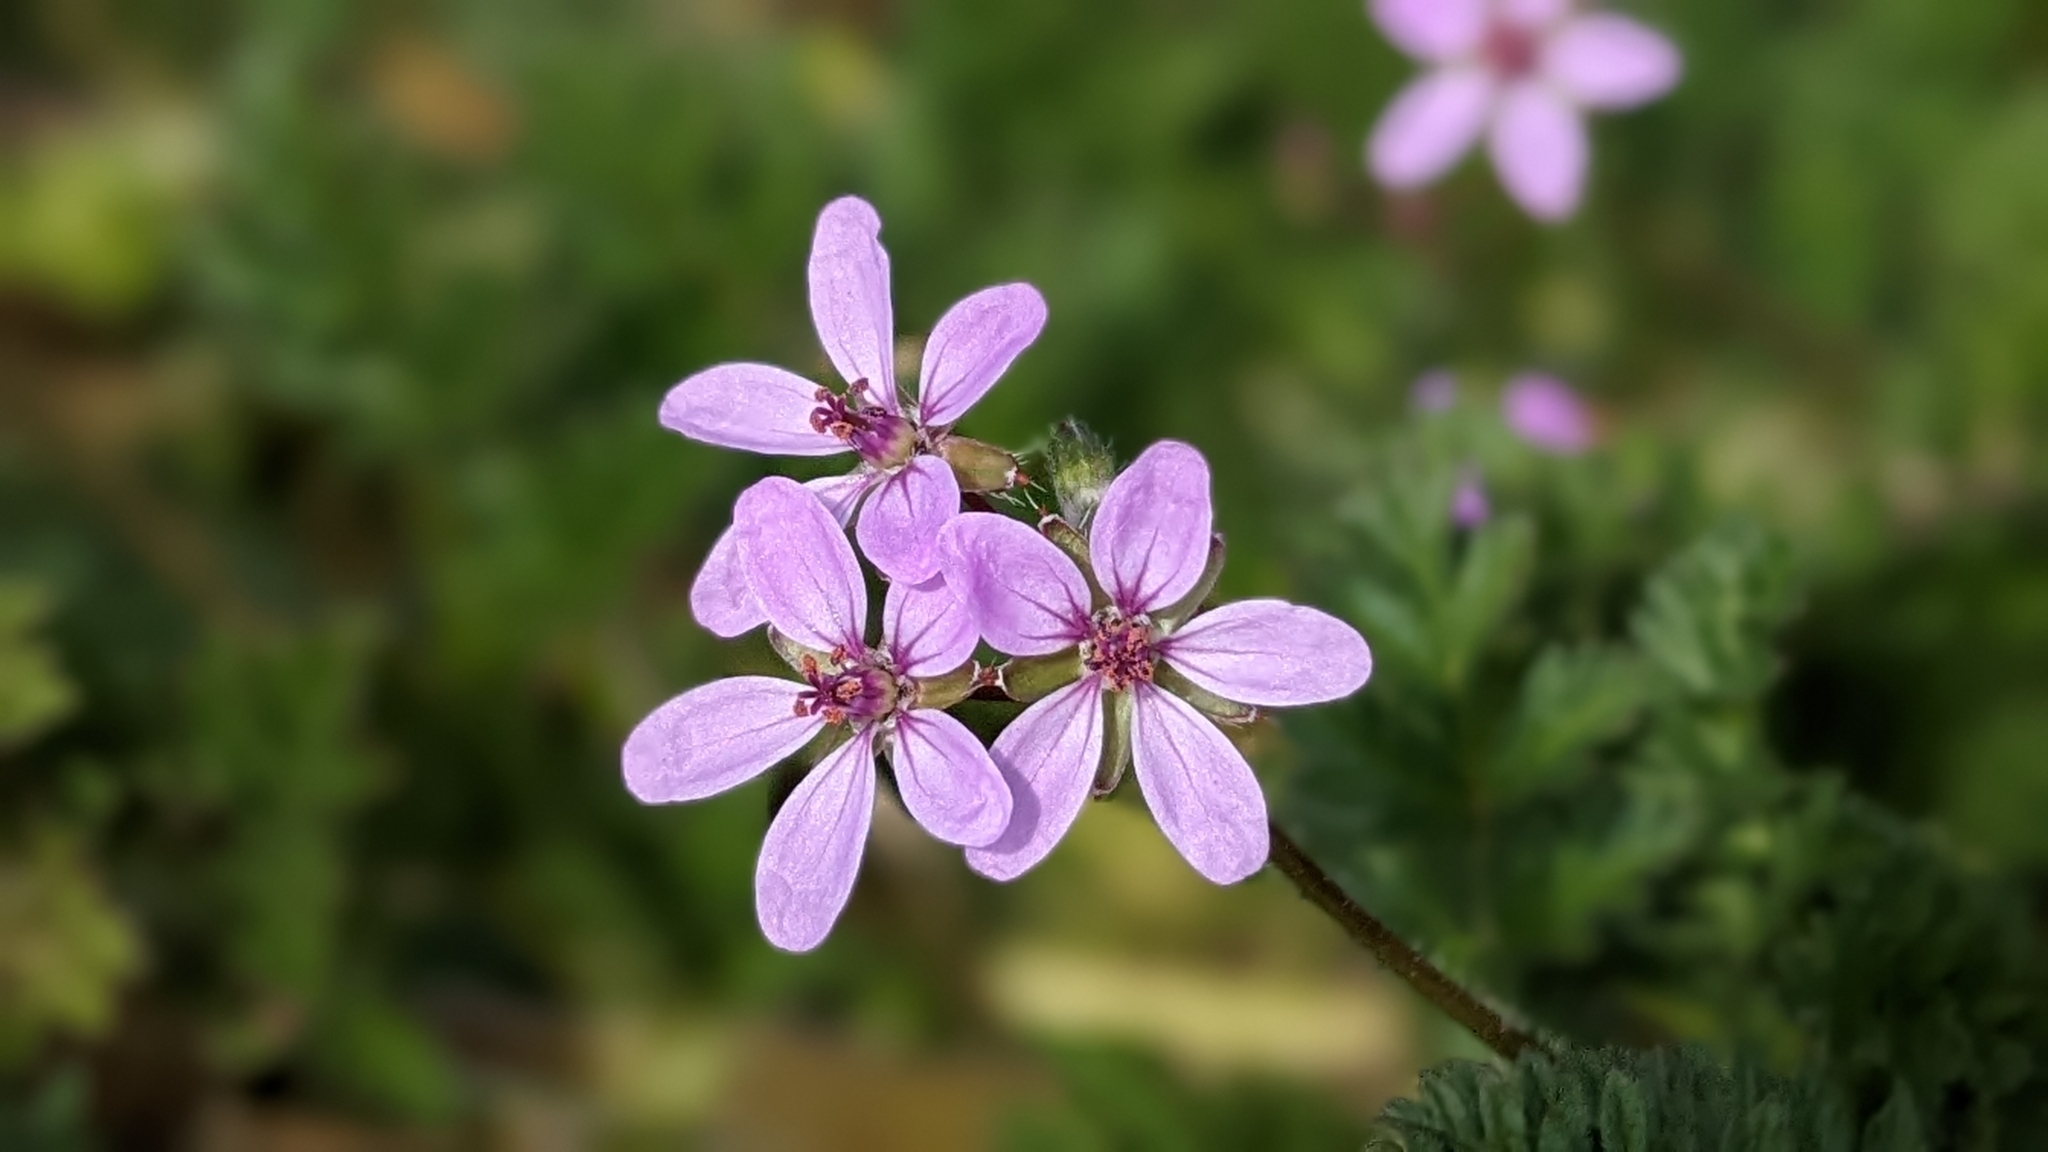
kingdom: Plantae
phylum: Tracheophyta
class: Magnoliopsida
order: Geraniales
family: Geraniaceae
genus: Erodium
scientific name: Erodium cicutarium
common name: Common stork's-bill
